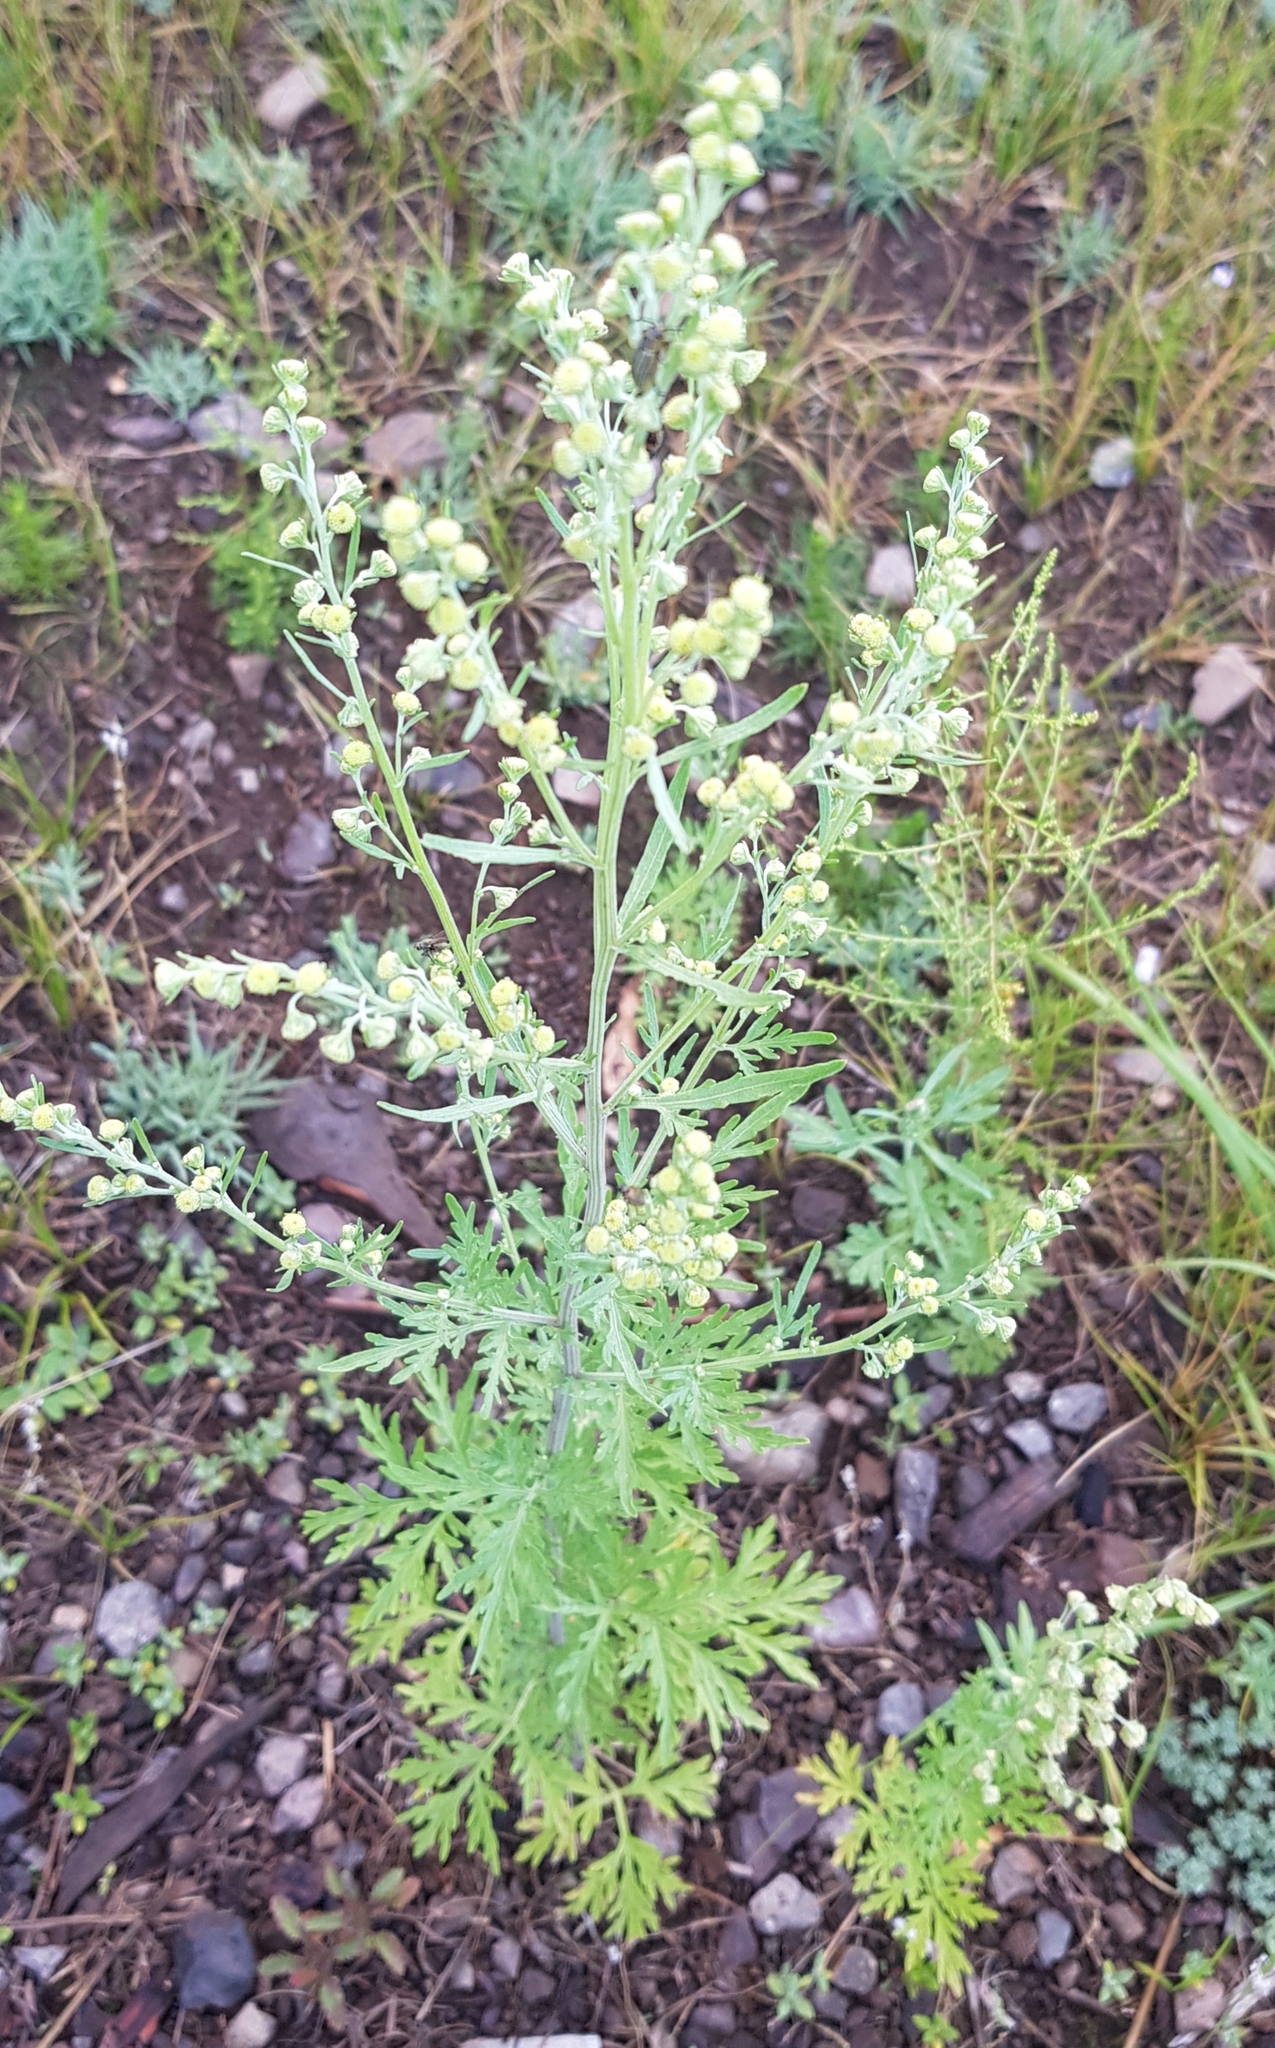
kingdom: Plantae
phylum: Tracheophyta
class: Magnoliopsida
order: Asterales
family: Asteraceae
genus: Artemisia
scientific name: Artemisia annua
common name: Sweet sagewort
